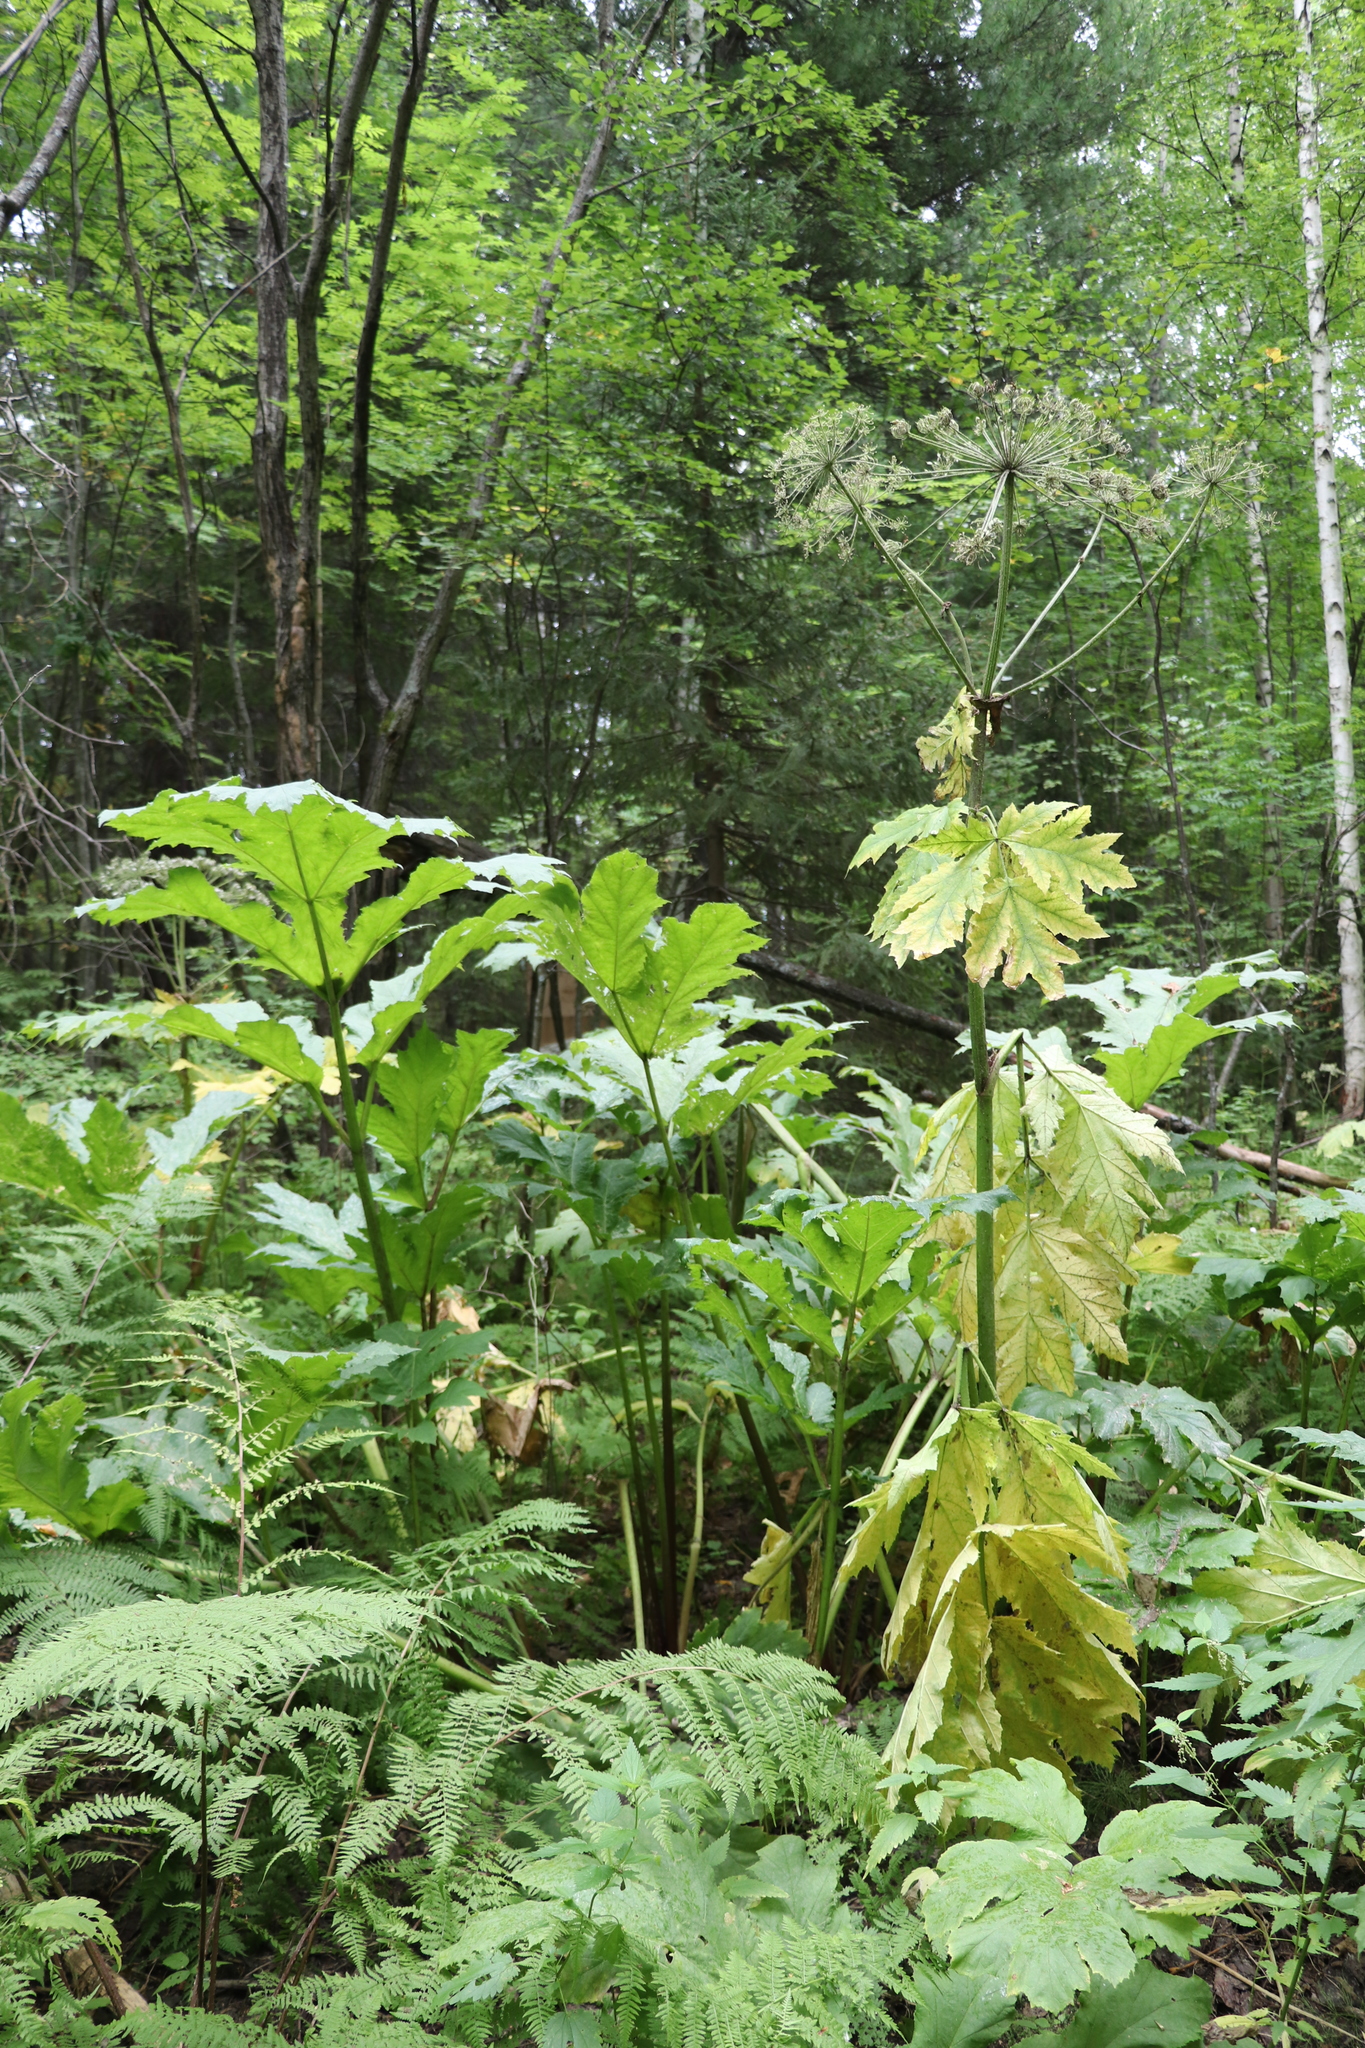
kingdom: Plantae
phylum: Tracheophyta
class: Magnoliopsida
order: Apiales
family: Apiaceae
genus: Heracleum
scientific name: Heracleum sosnowskyi
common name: Sosnowsky's hogweed
